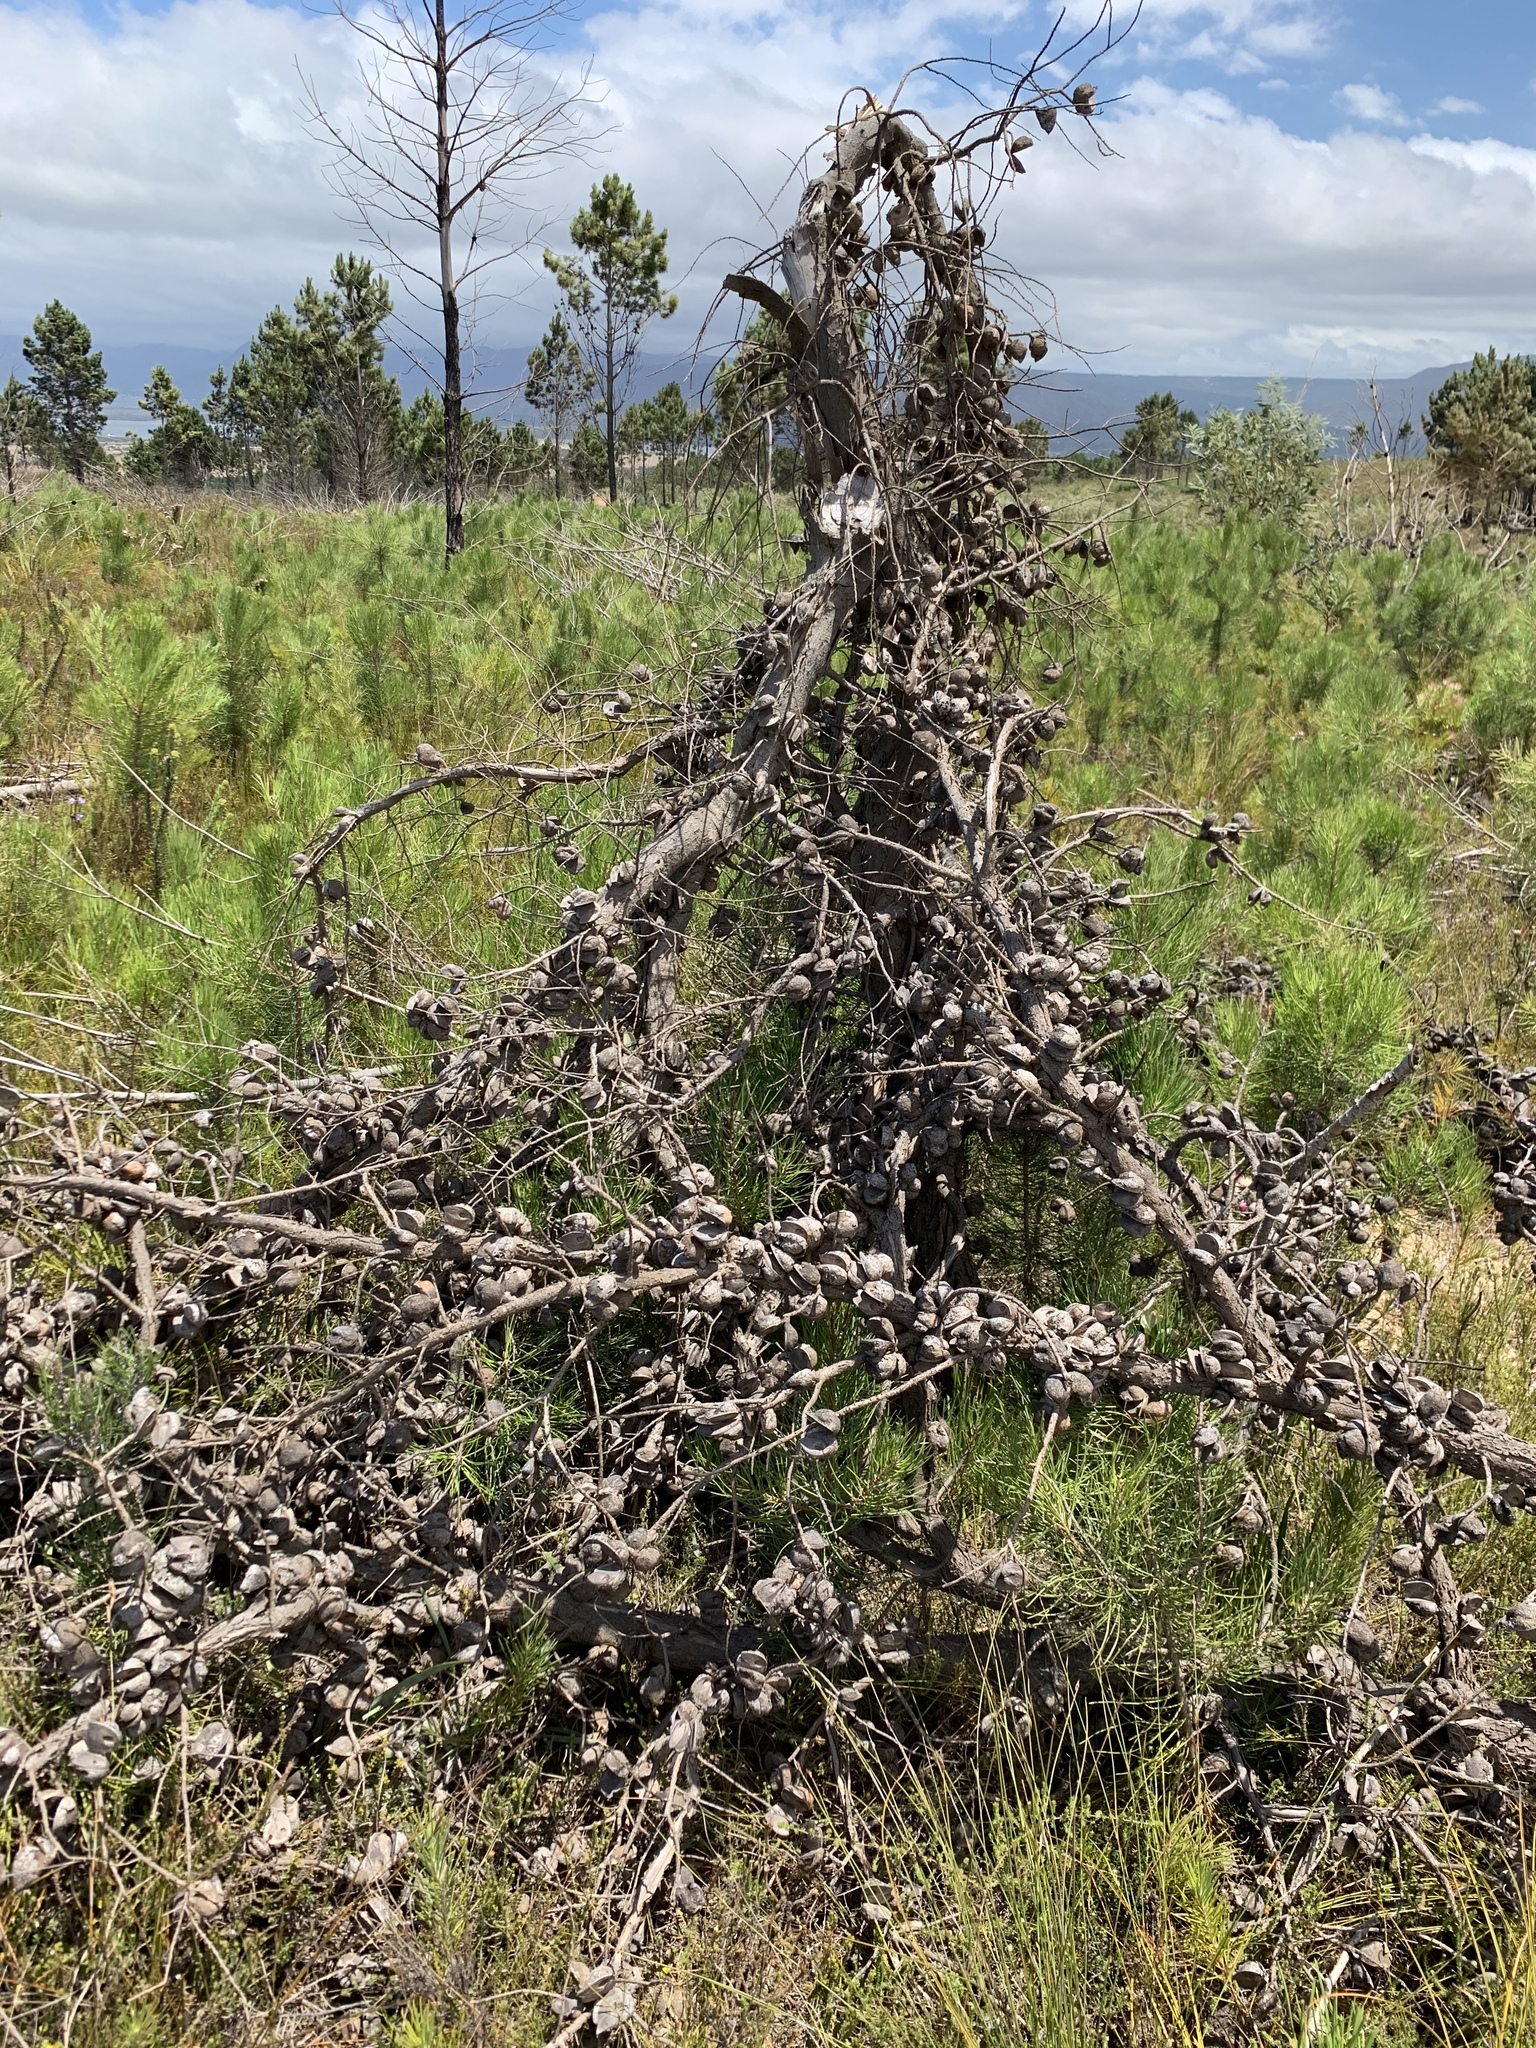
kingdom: Plantae
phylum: Tracheophyta
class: Magnoliopsida
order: Proteales
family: Proteaceae
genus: Hakea
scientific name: Hakea gibbosa
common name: Rock hakea
